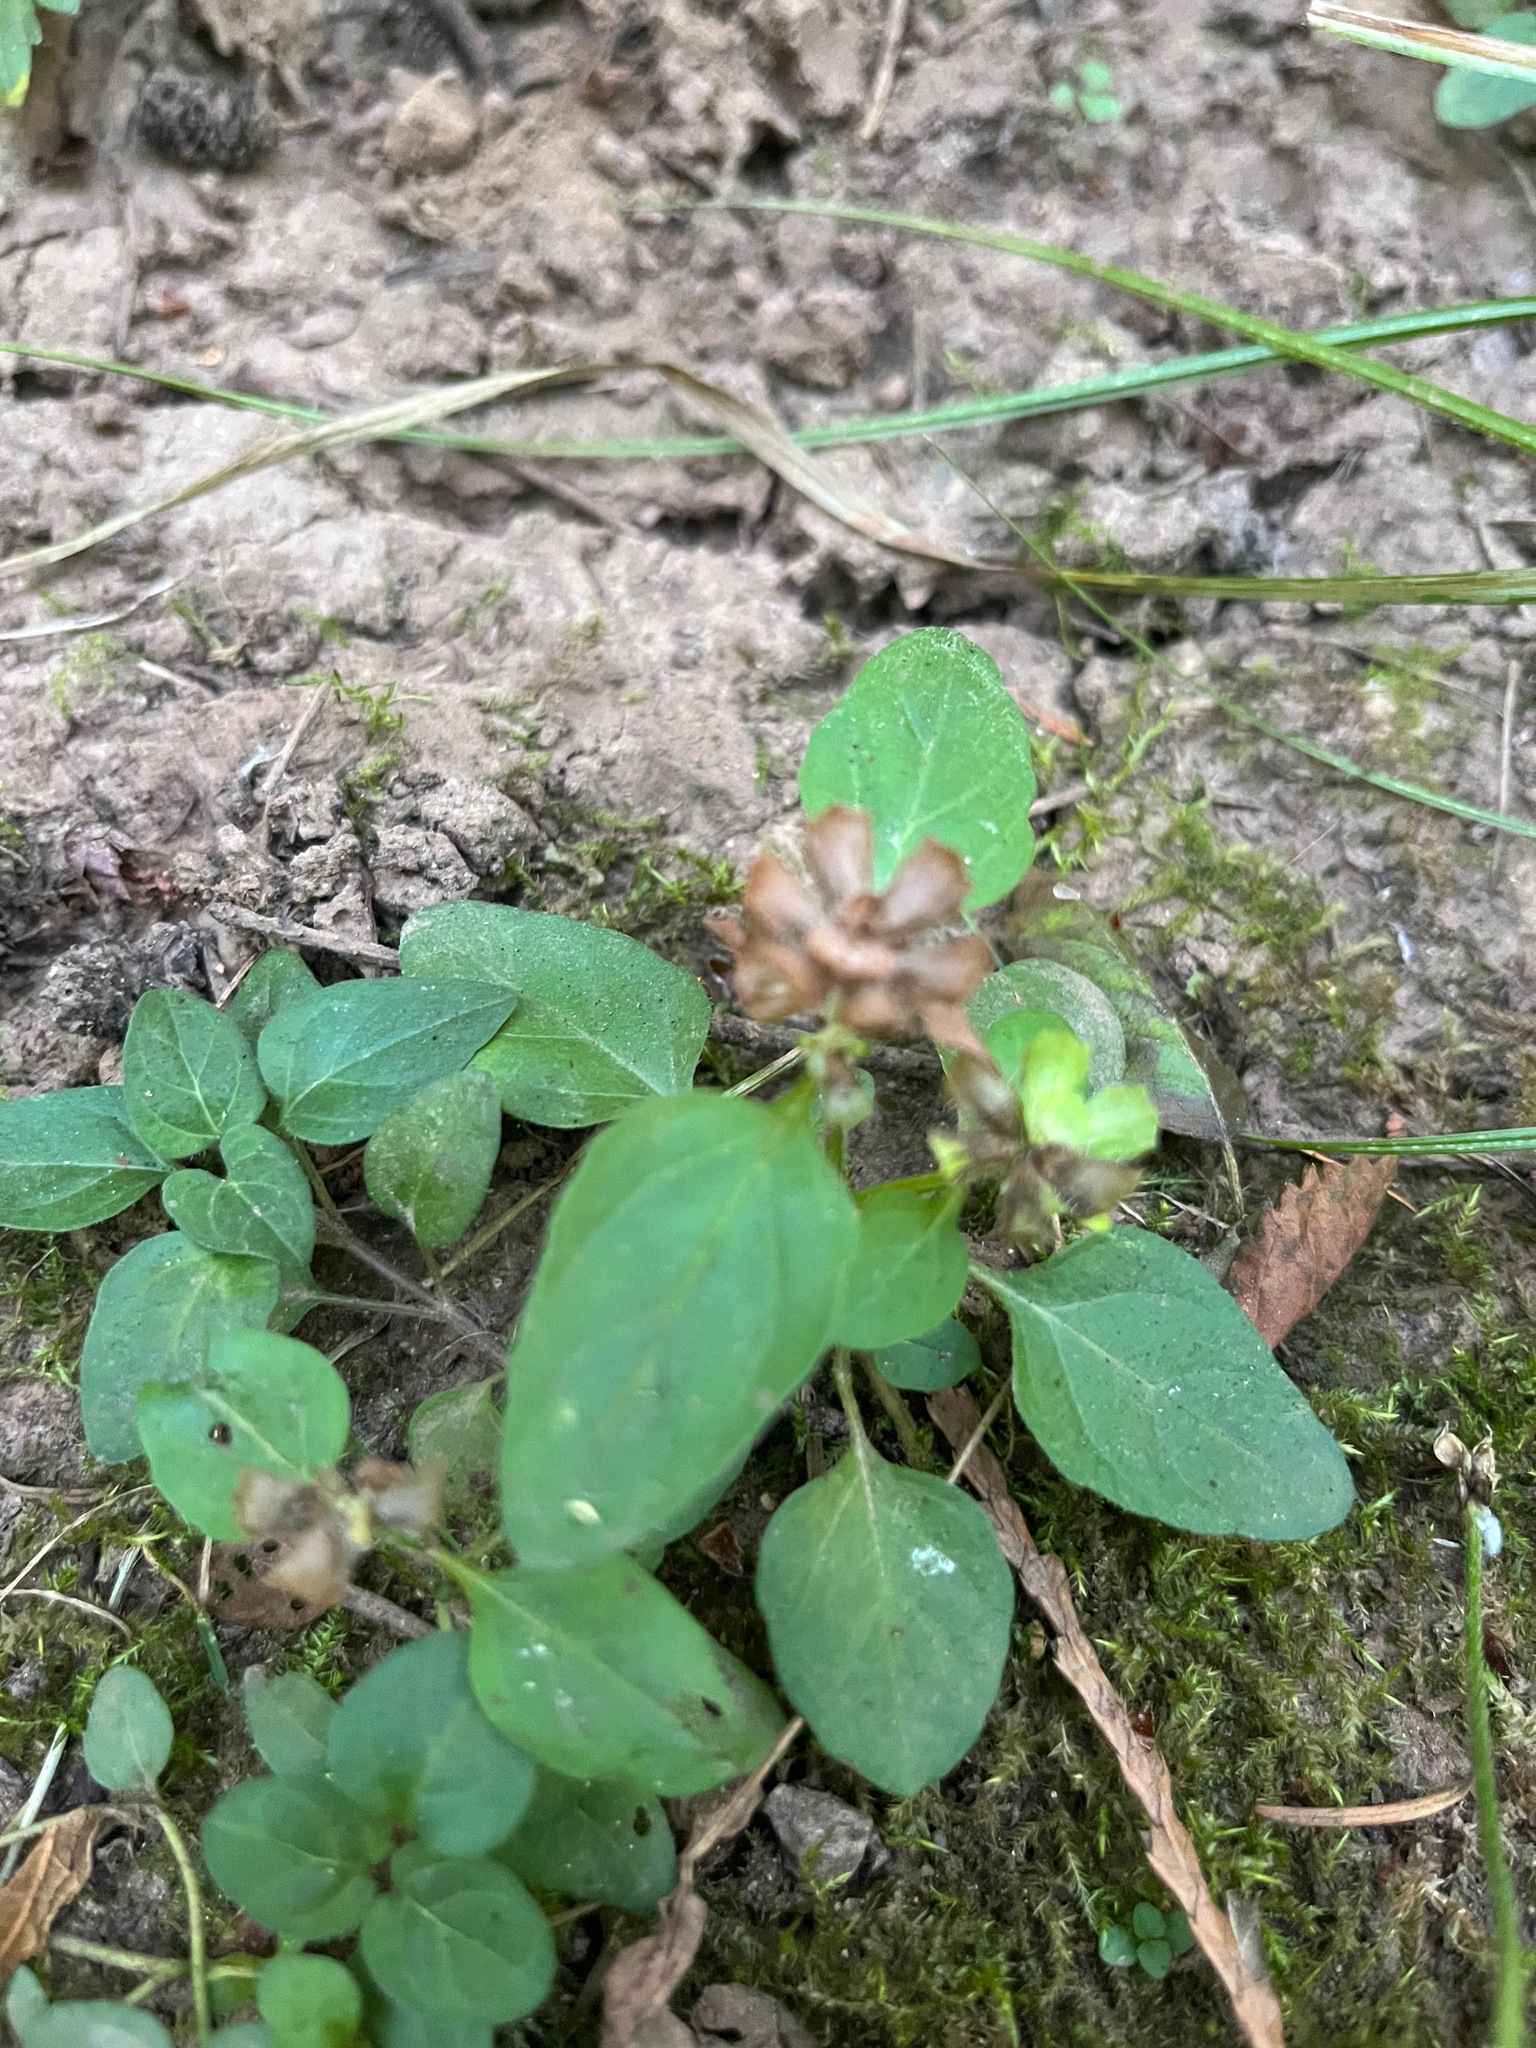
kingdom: Plantae
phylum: Tracheophyta
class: Magnoliopsida
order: Lamiales
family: Lamiaceae
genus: Prunella
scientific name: Prunella vulgaris
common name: Heal-all
